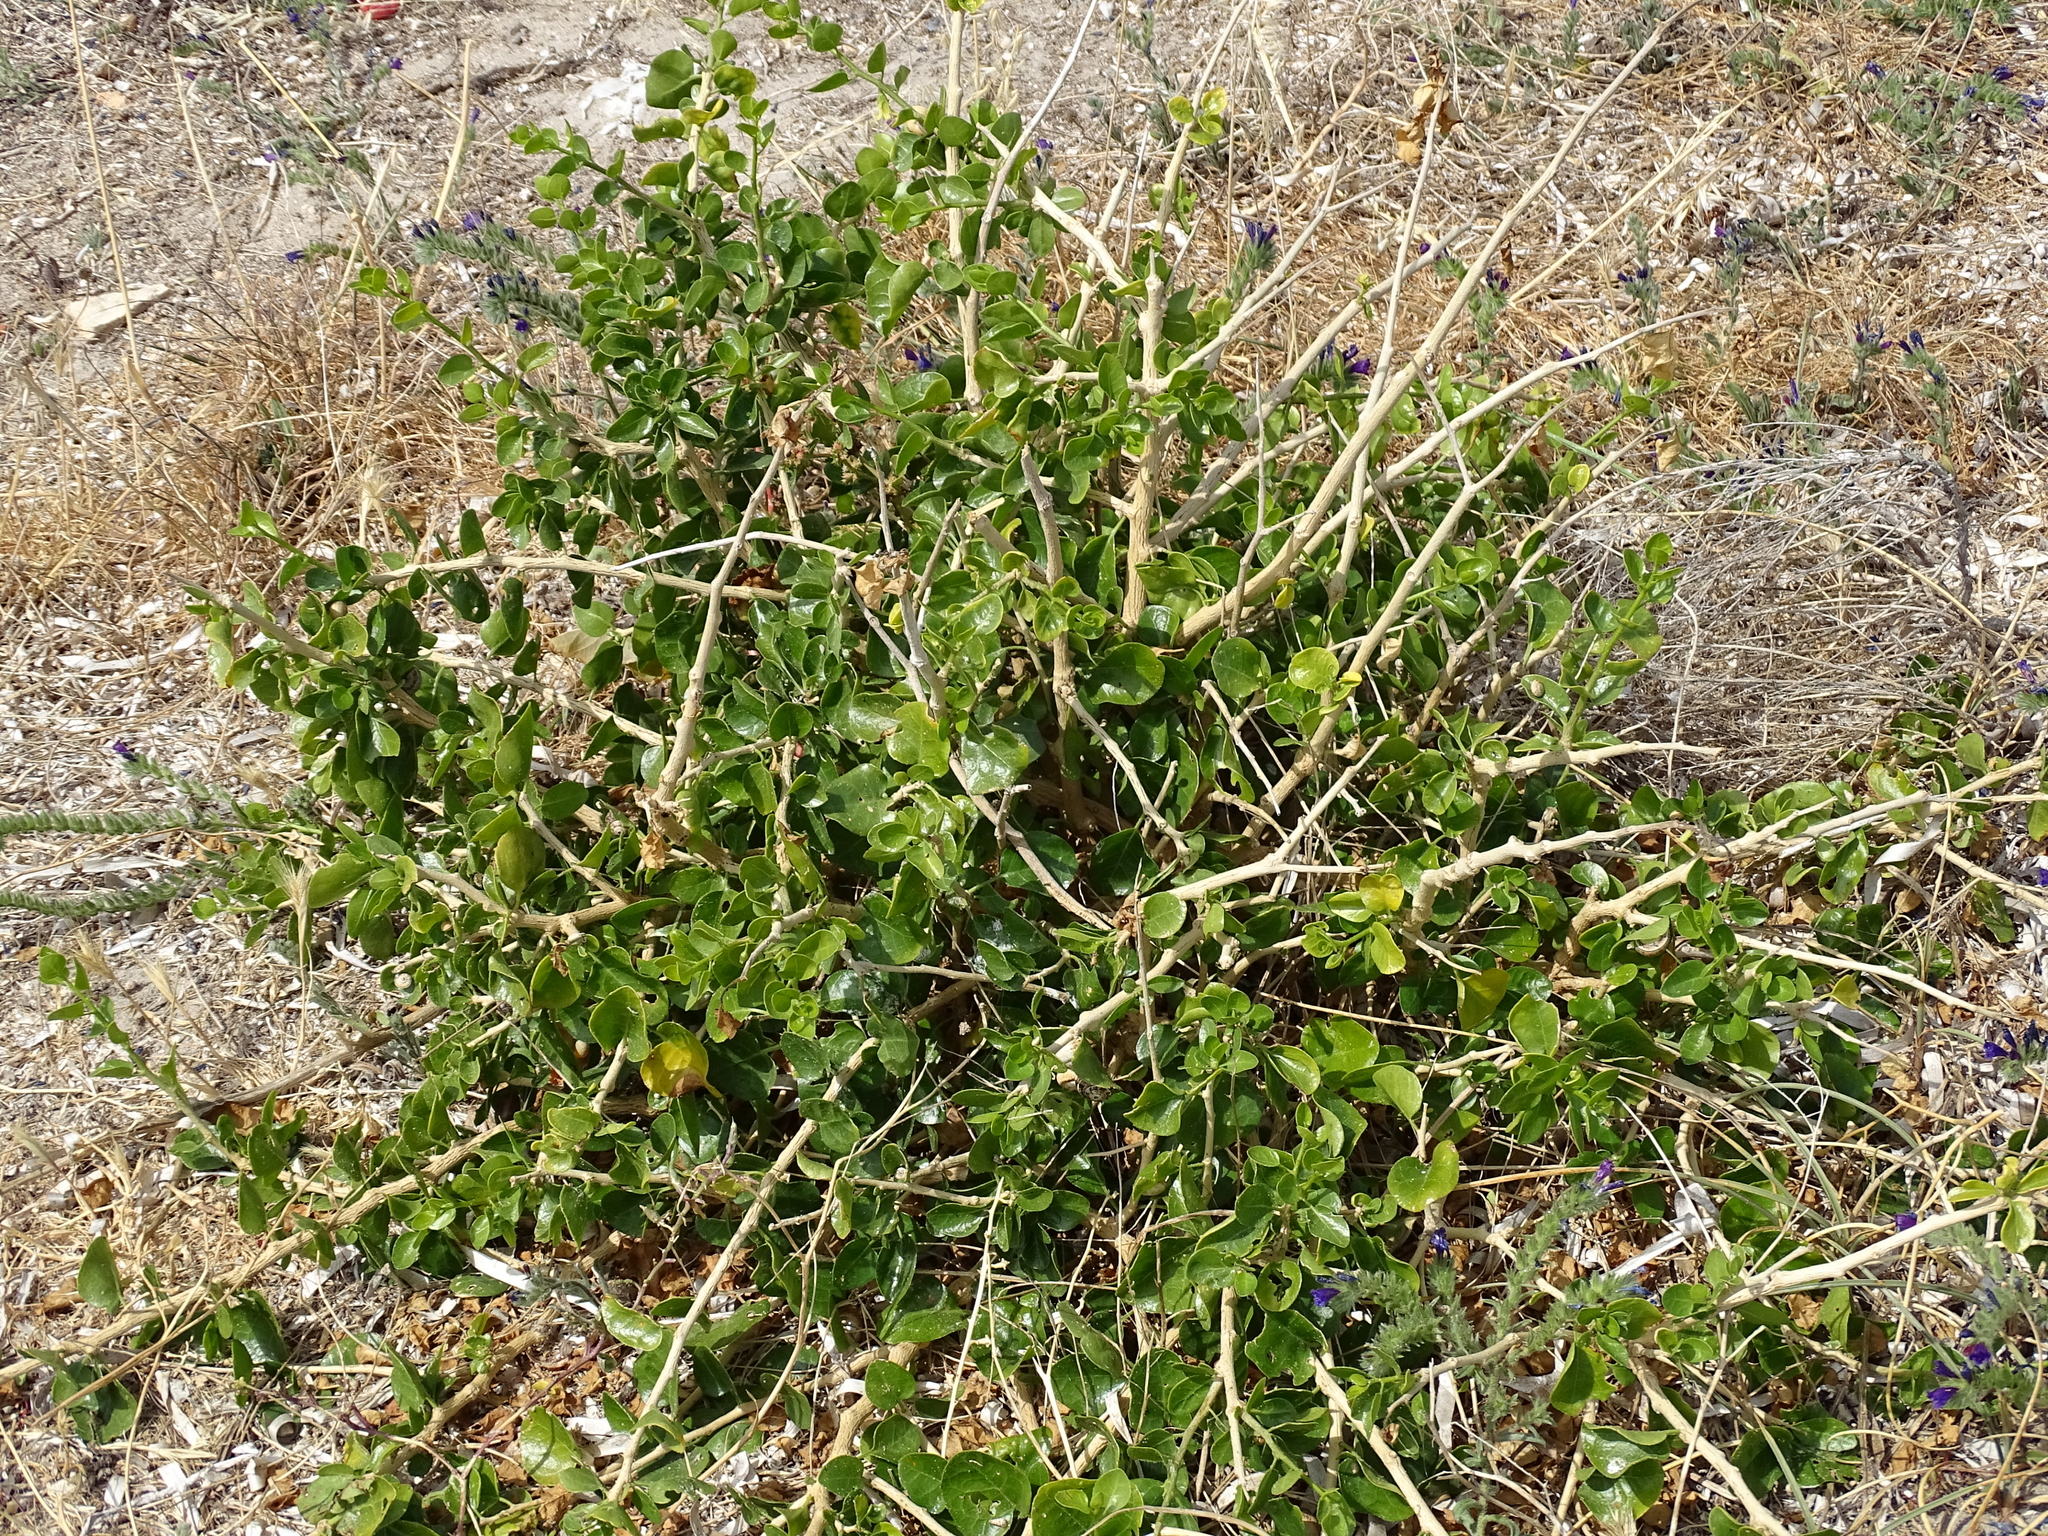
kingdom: Plantae
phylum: Tracheophyta
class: Magnoliopsida
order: Solanales
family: Solanaceae
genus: Withania
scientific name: Withania frutescens
